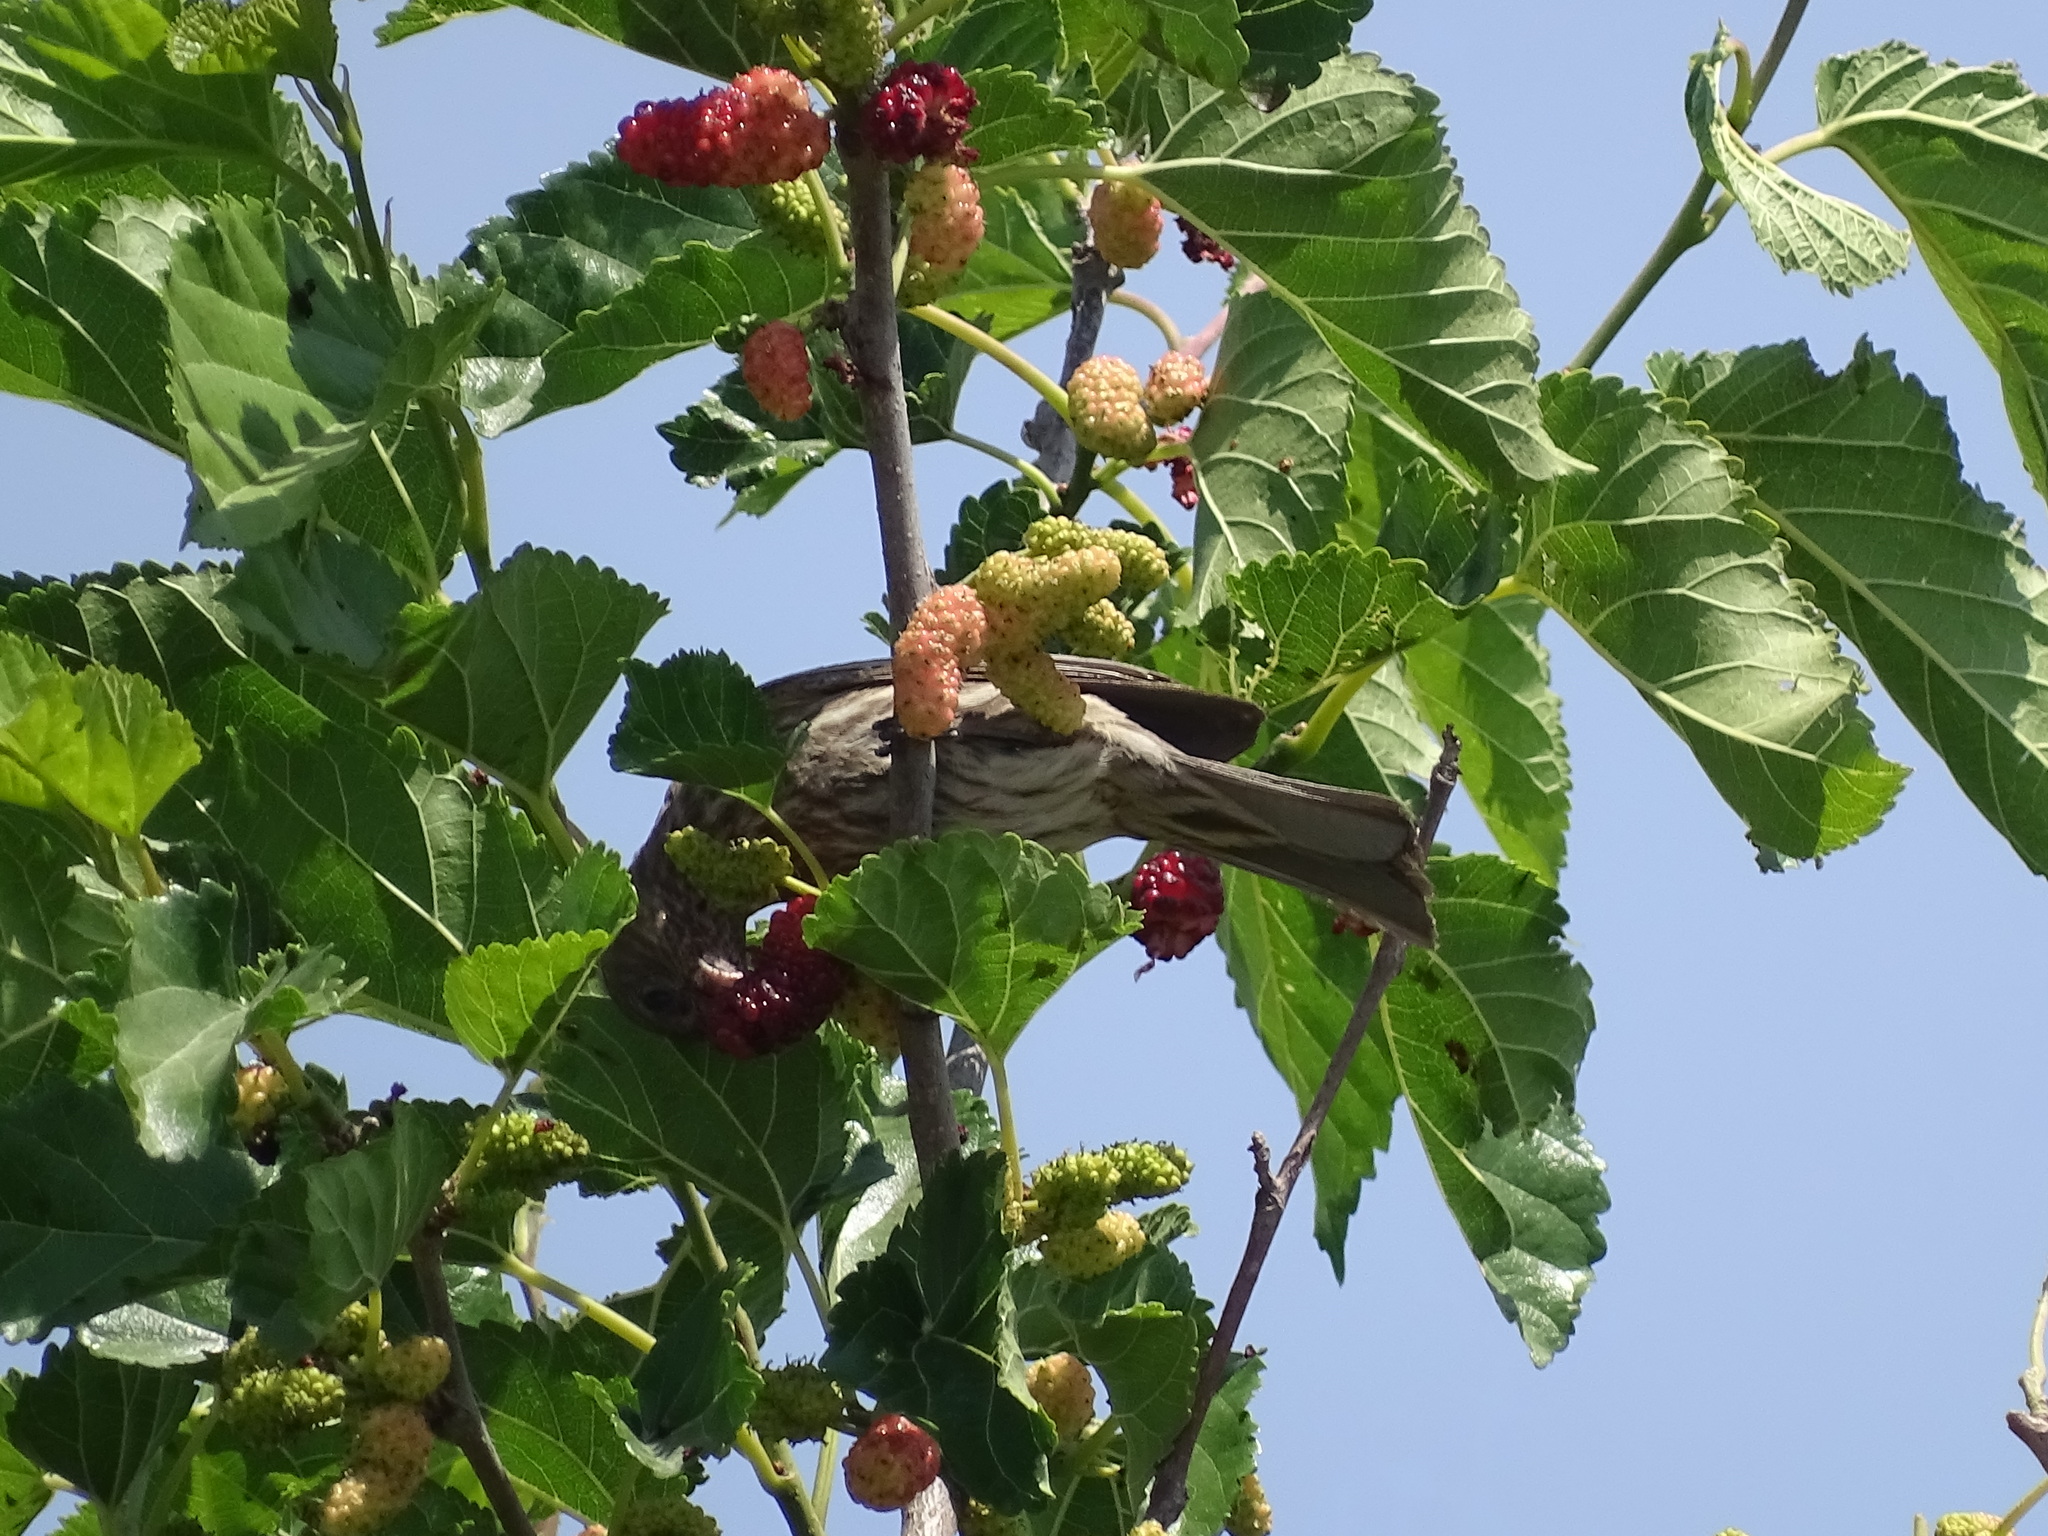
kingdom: Animalia
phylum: Chordata
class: Aves
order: Passeriformes
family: Fringillidae
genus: Haemorhous
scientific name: Haemorhous mexicanus
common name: House finch
